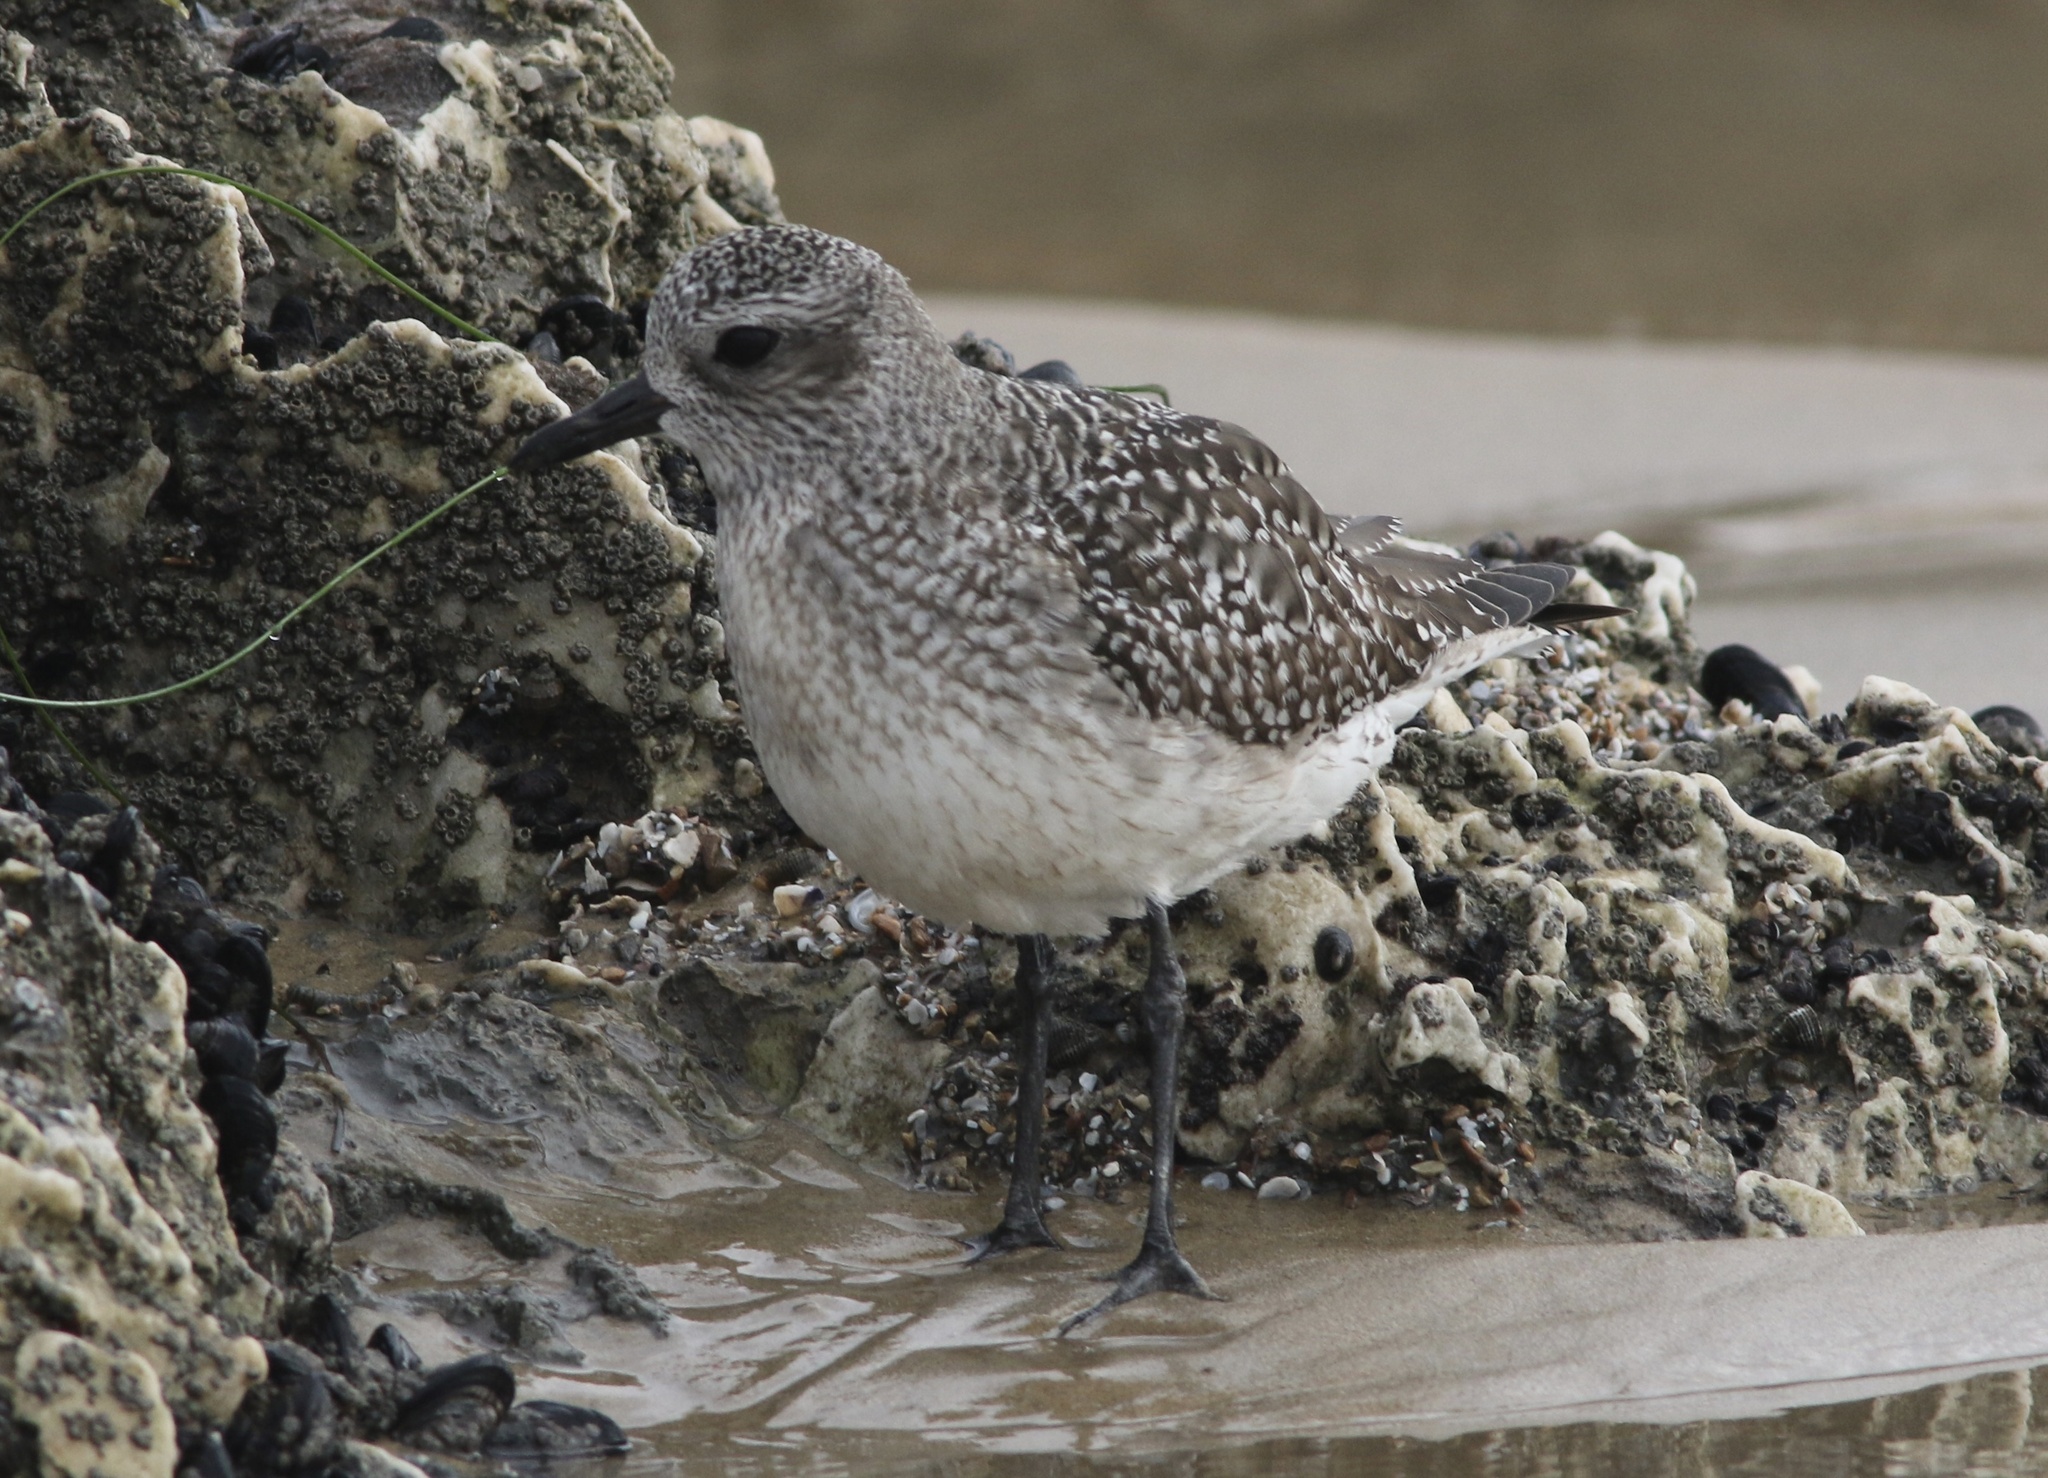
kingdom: Animalia
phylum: Chordata
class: Aves
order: Charadriiformes
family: Charadriidae
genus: Pluvialis
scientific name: Pluvialis squatarola
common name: Grey plover
